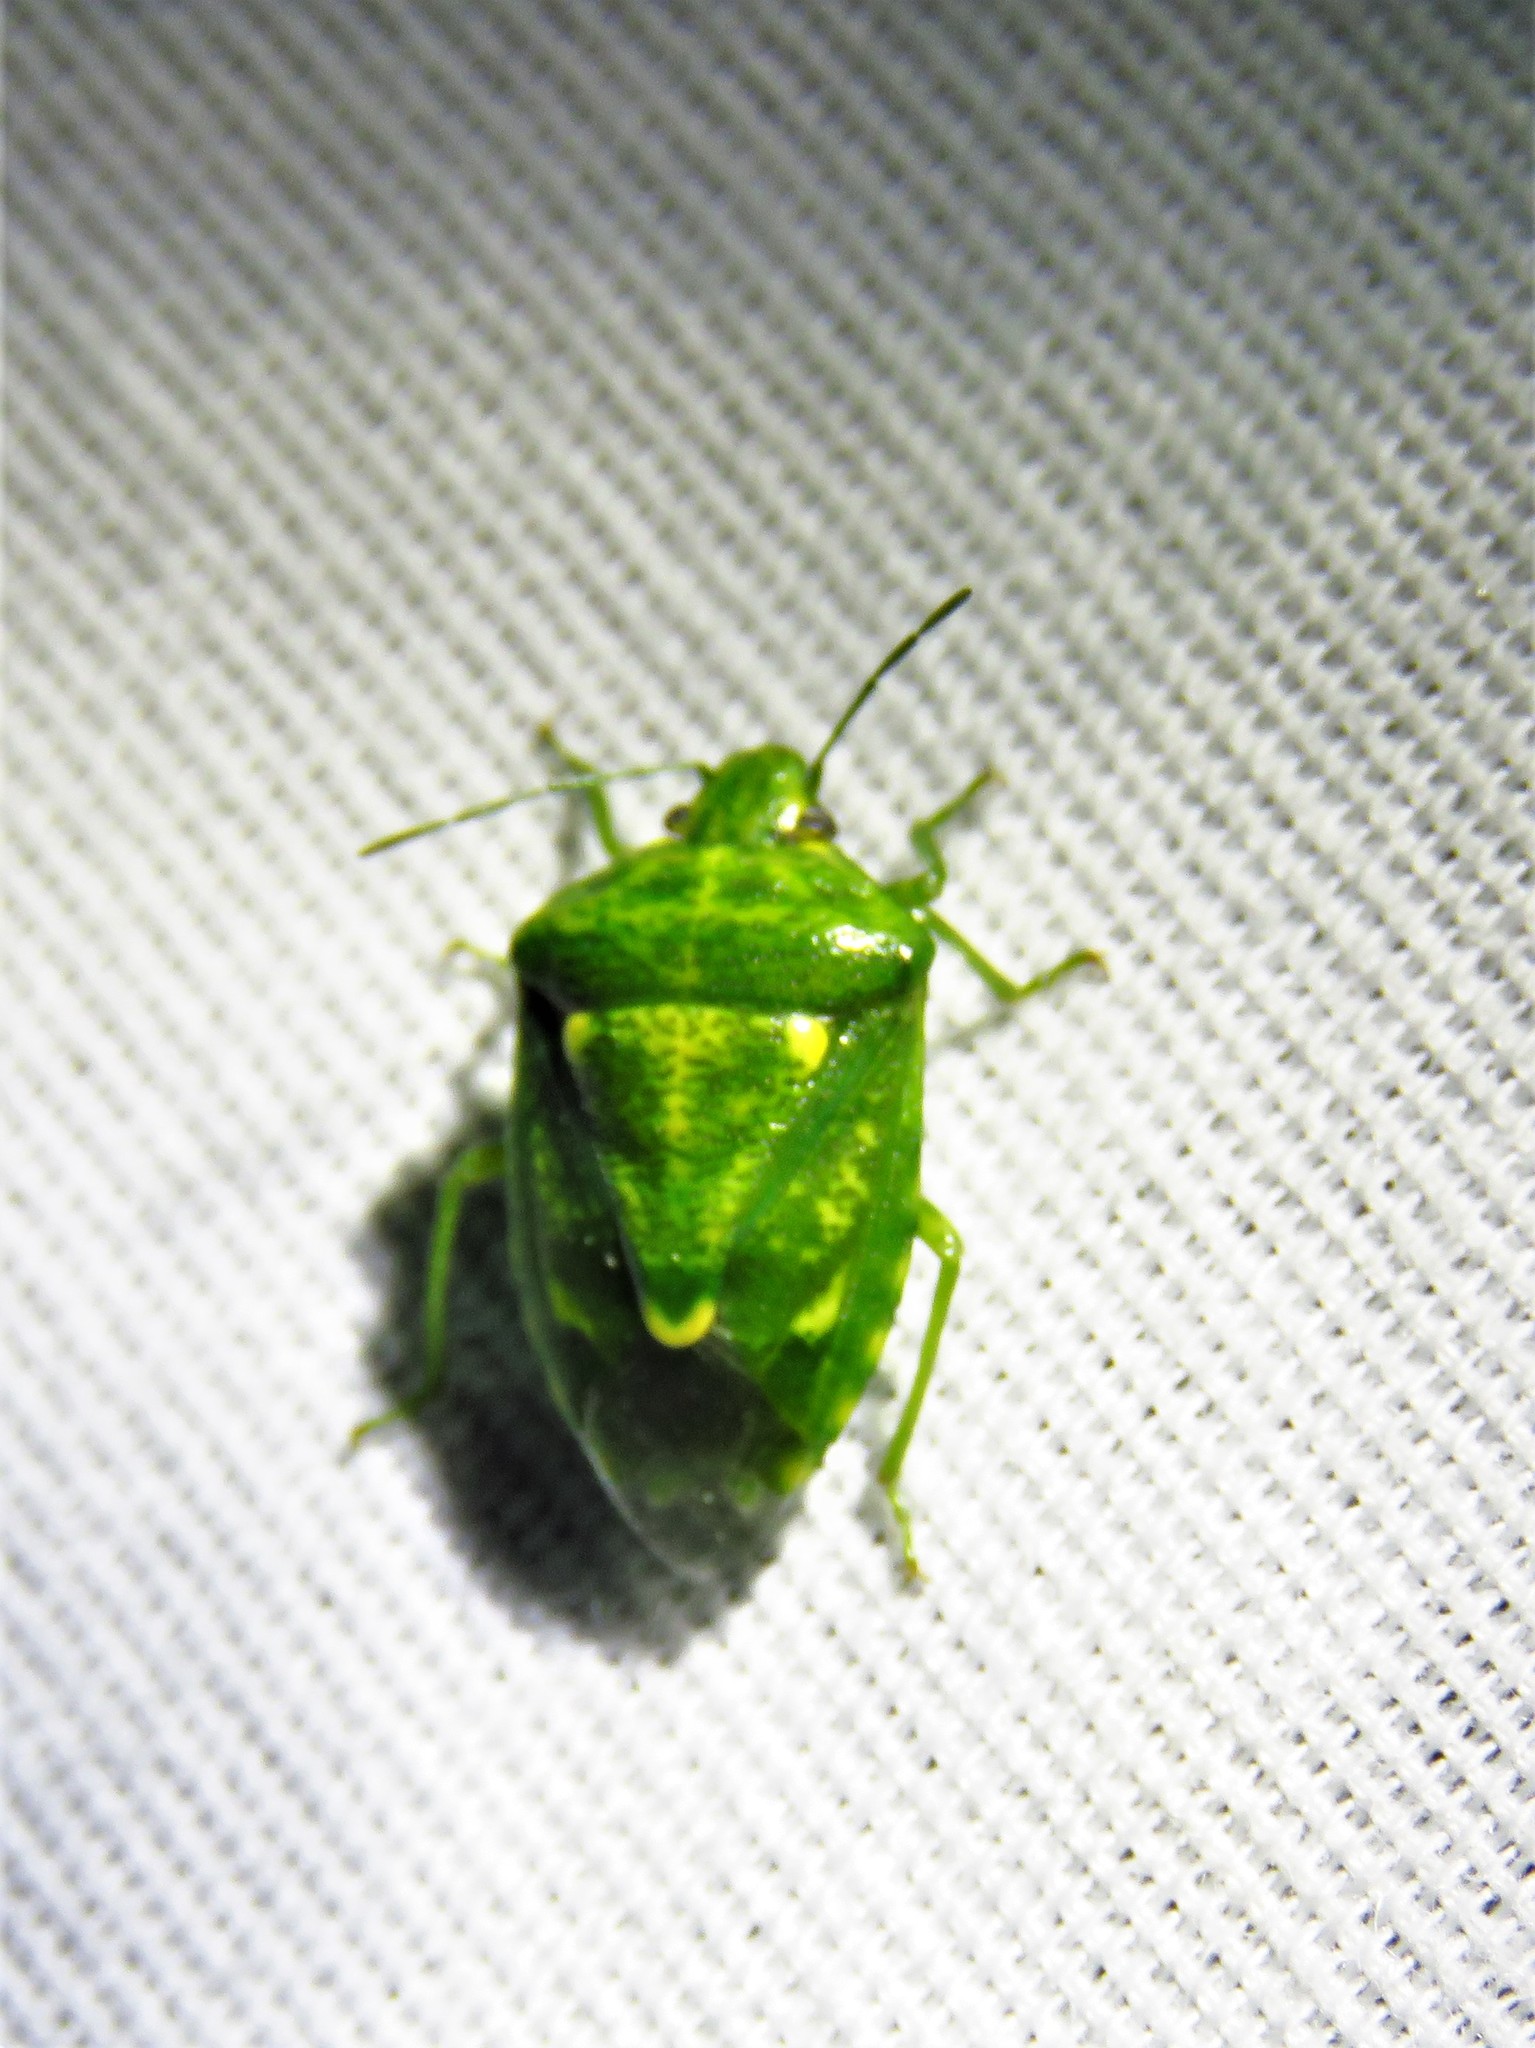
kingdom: Animalia
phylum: Arthropoda
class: Insecta
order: Hemiptera
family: Pentatomidae
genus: Banasa
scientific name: Banasa euchlora
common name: Cedar berry bug
